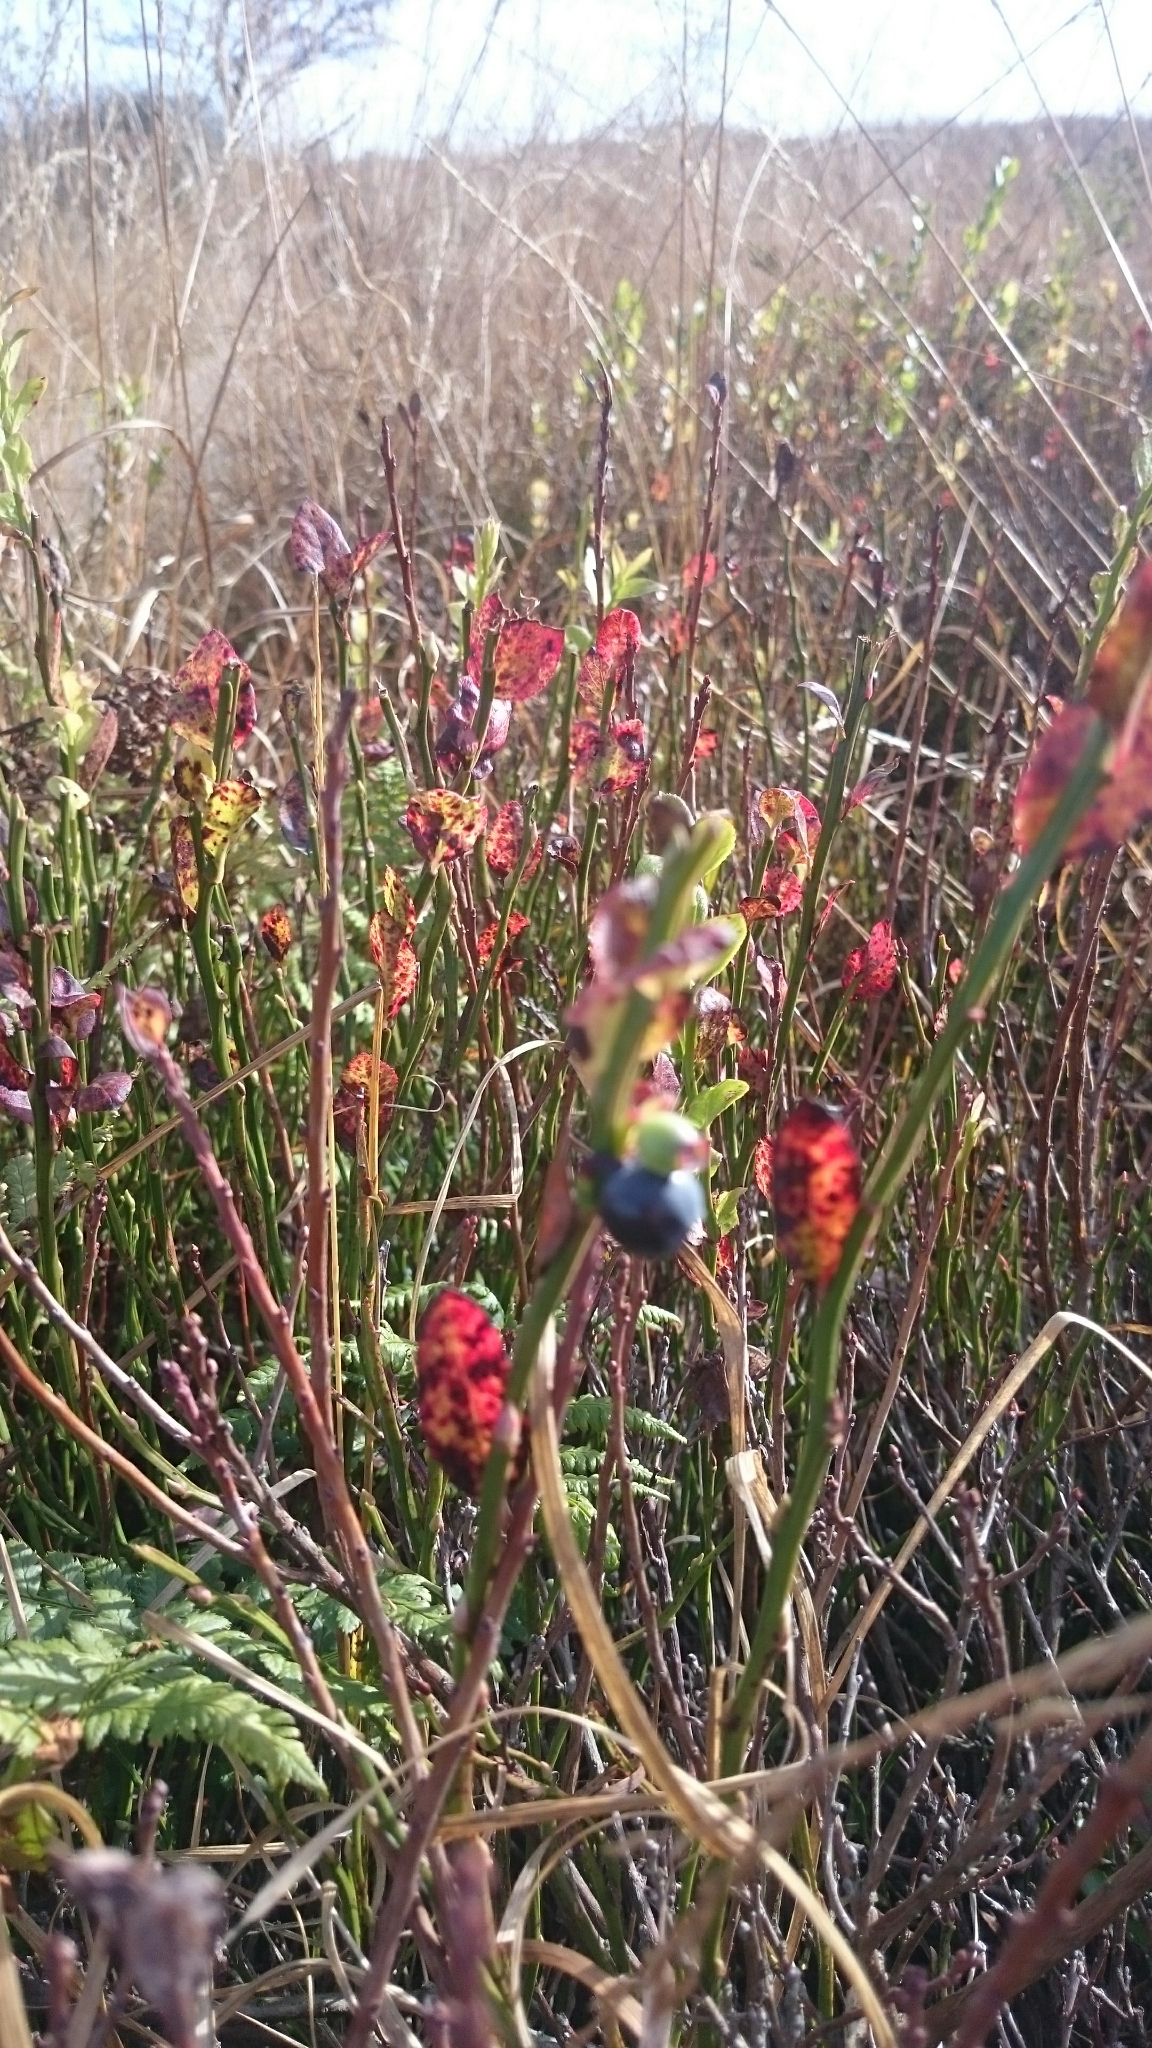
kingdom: Plantae
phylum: Tracheophyta
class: Magnoliopsida
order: Ericales
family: Ericaceae
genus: Vaccinium
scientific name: Vaccinium myrtillus
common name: Bilberry
